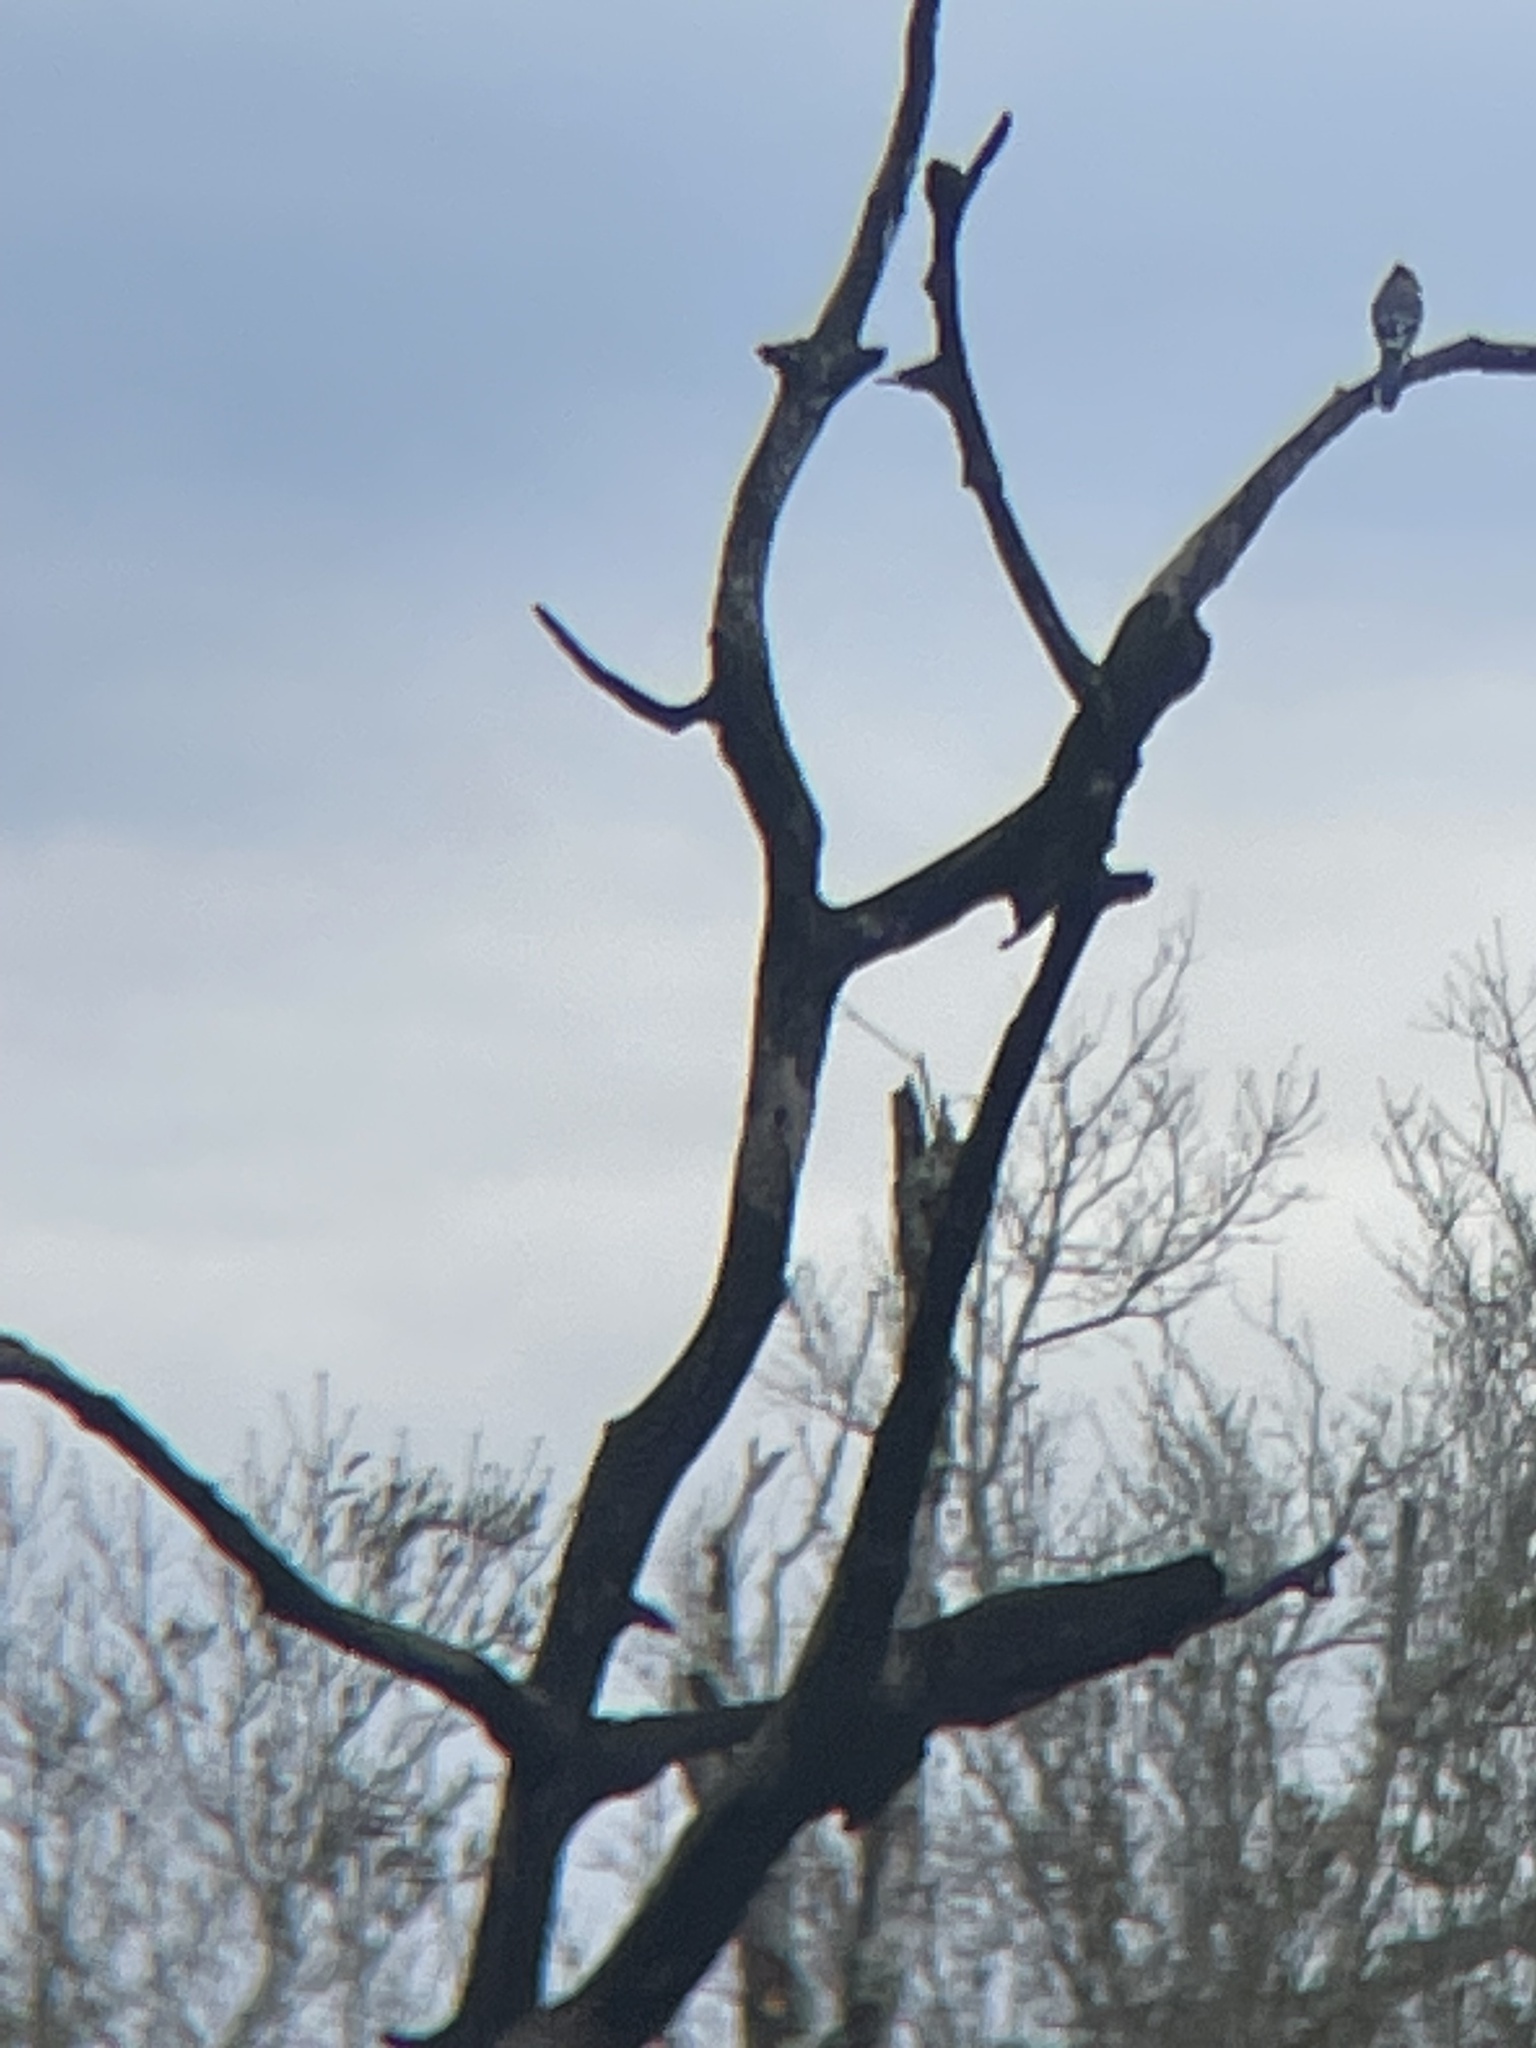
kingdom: Animalia
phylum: Chordata
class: Aves
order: Passeriformes
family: Corvidae
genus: Cyanocitta
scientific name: Cyanocitta cristata
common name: Blue jay
